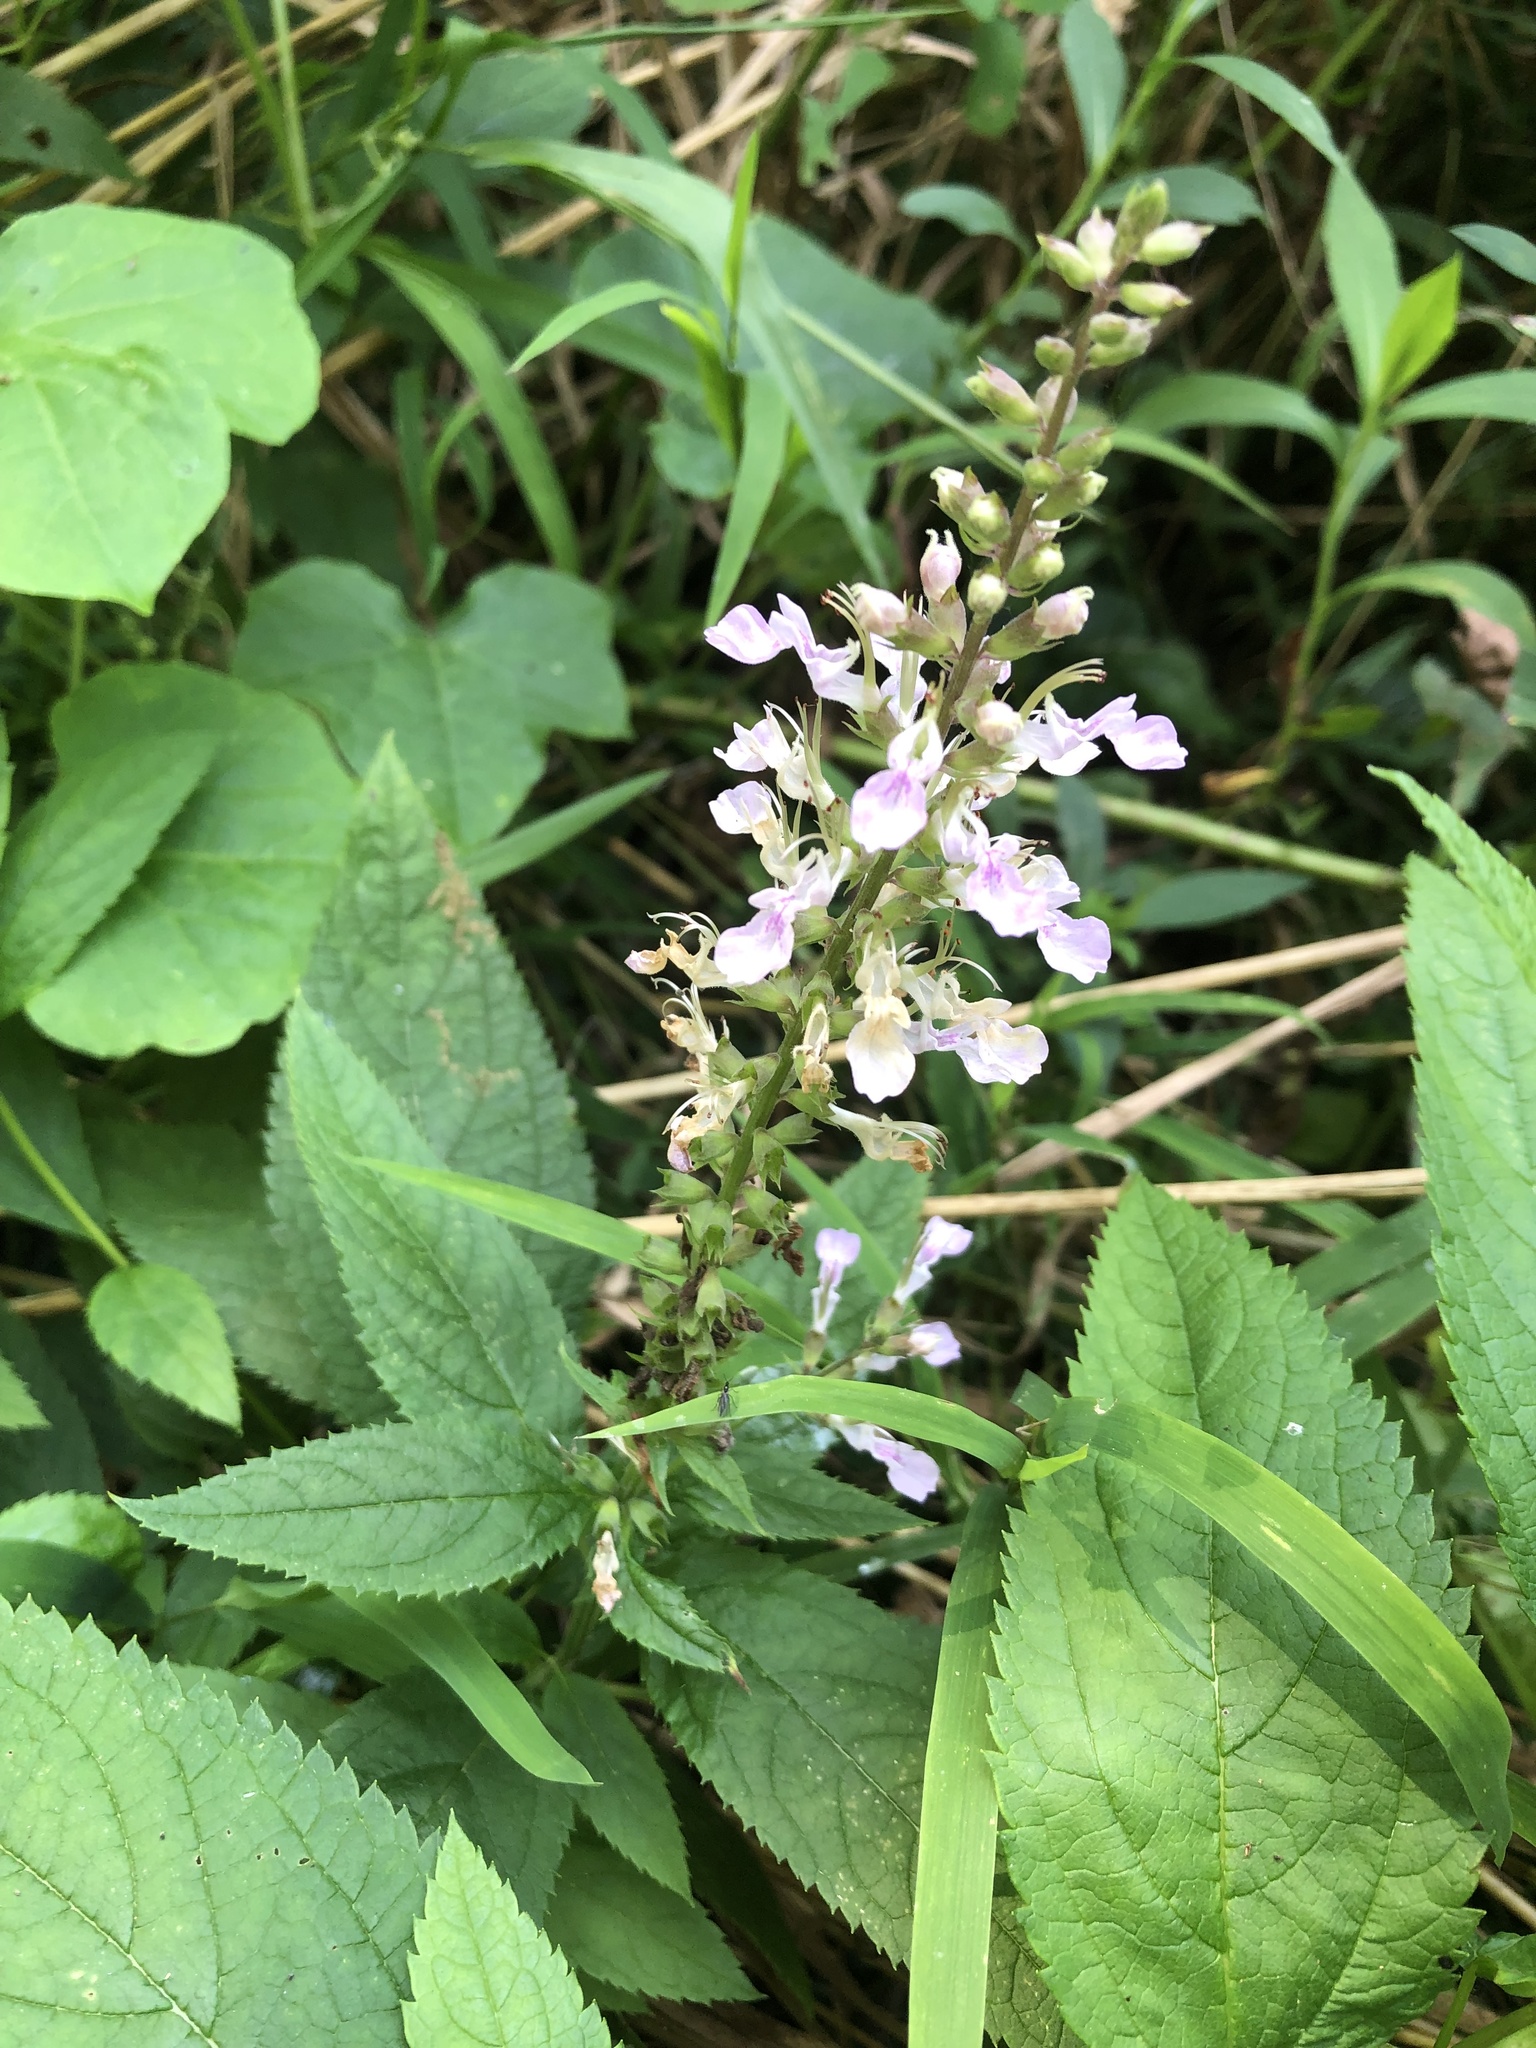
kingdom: Plantae
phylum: Tracheophyta
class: Magnoliopsida
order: Lamiales
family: Lamiaceae
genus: Teucrium
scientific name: Teucrium canadense
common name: American germander
